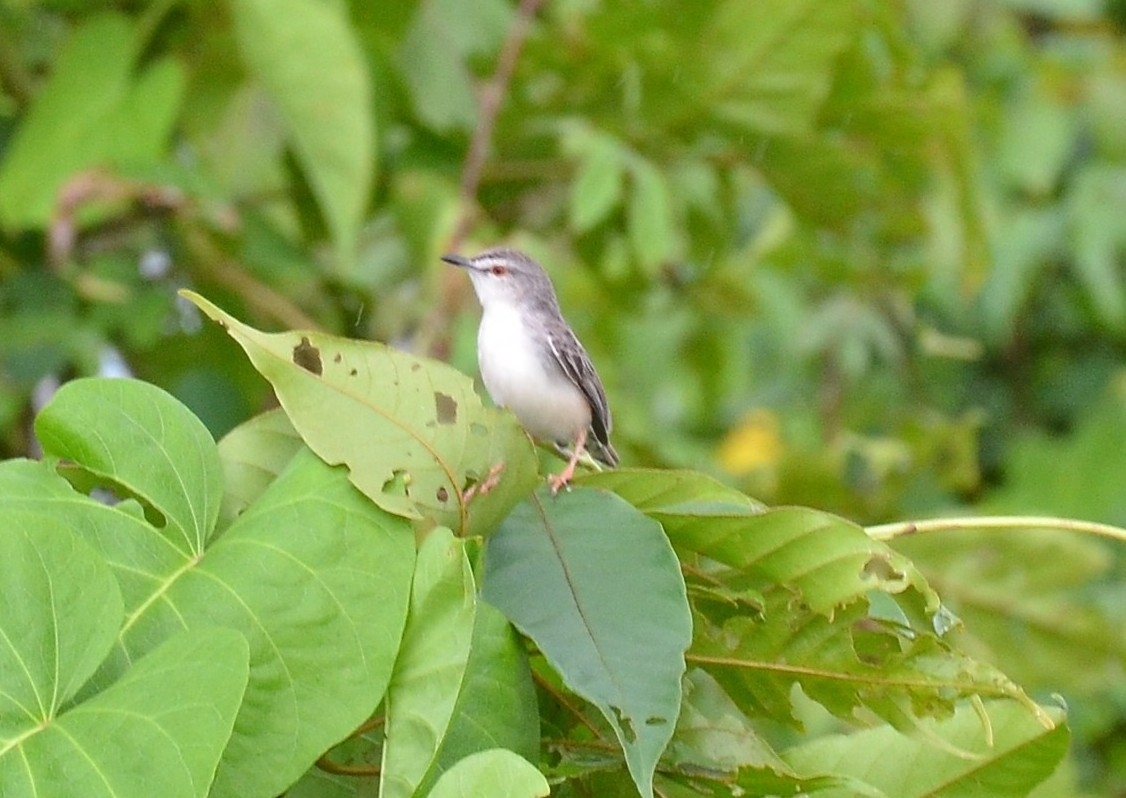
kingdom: Animalia
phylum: Chordata
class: Aves
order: Passeriformes
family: Cisticolidae
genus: Prinia
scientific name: Prinia inornata
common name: Plain prinia
